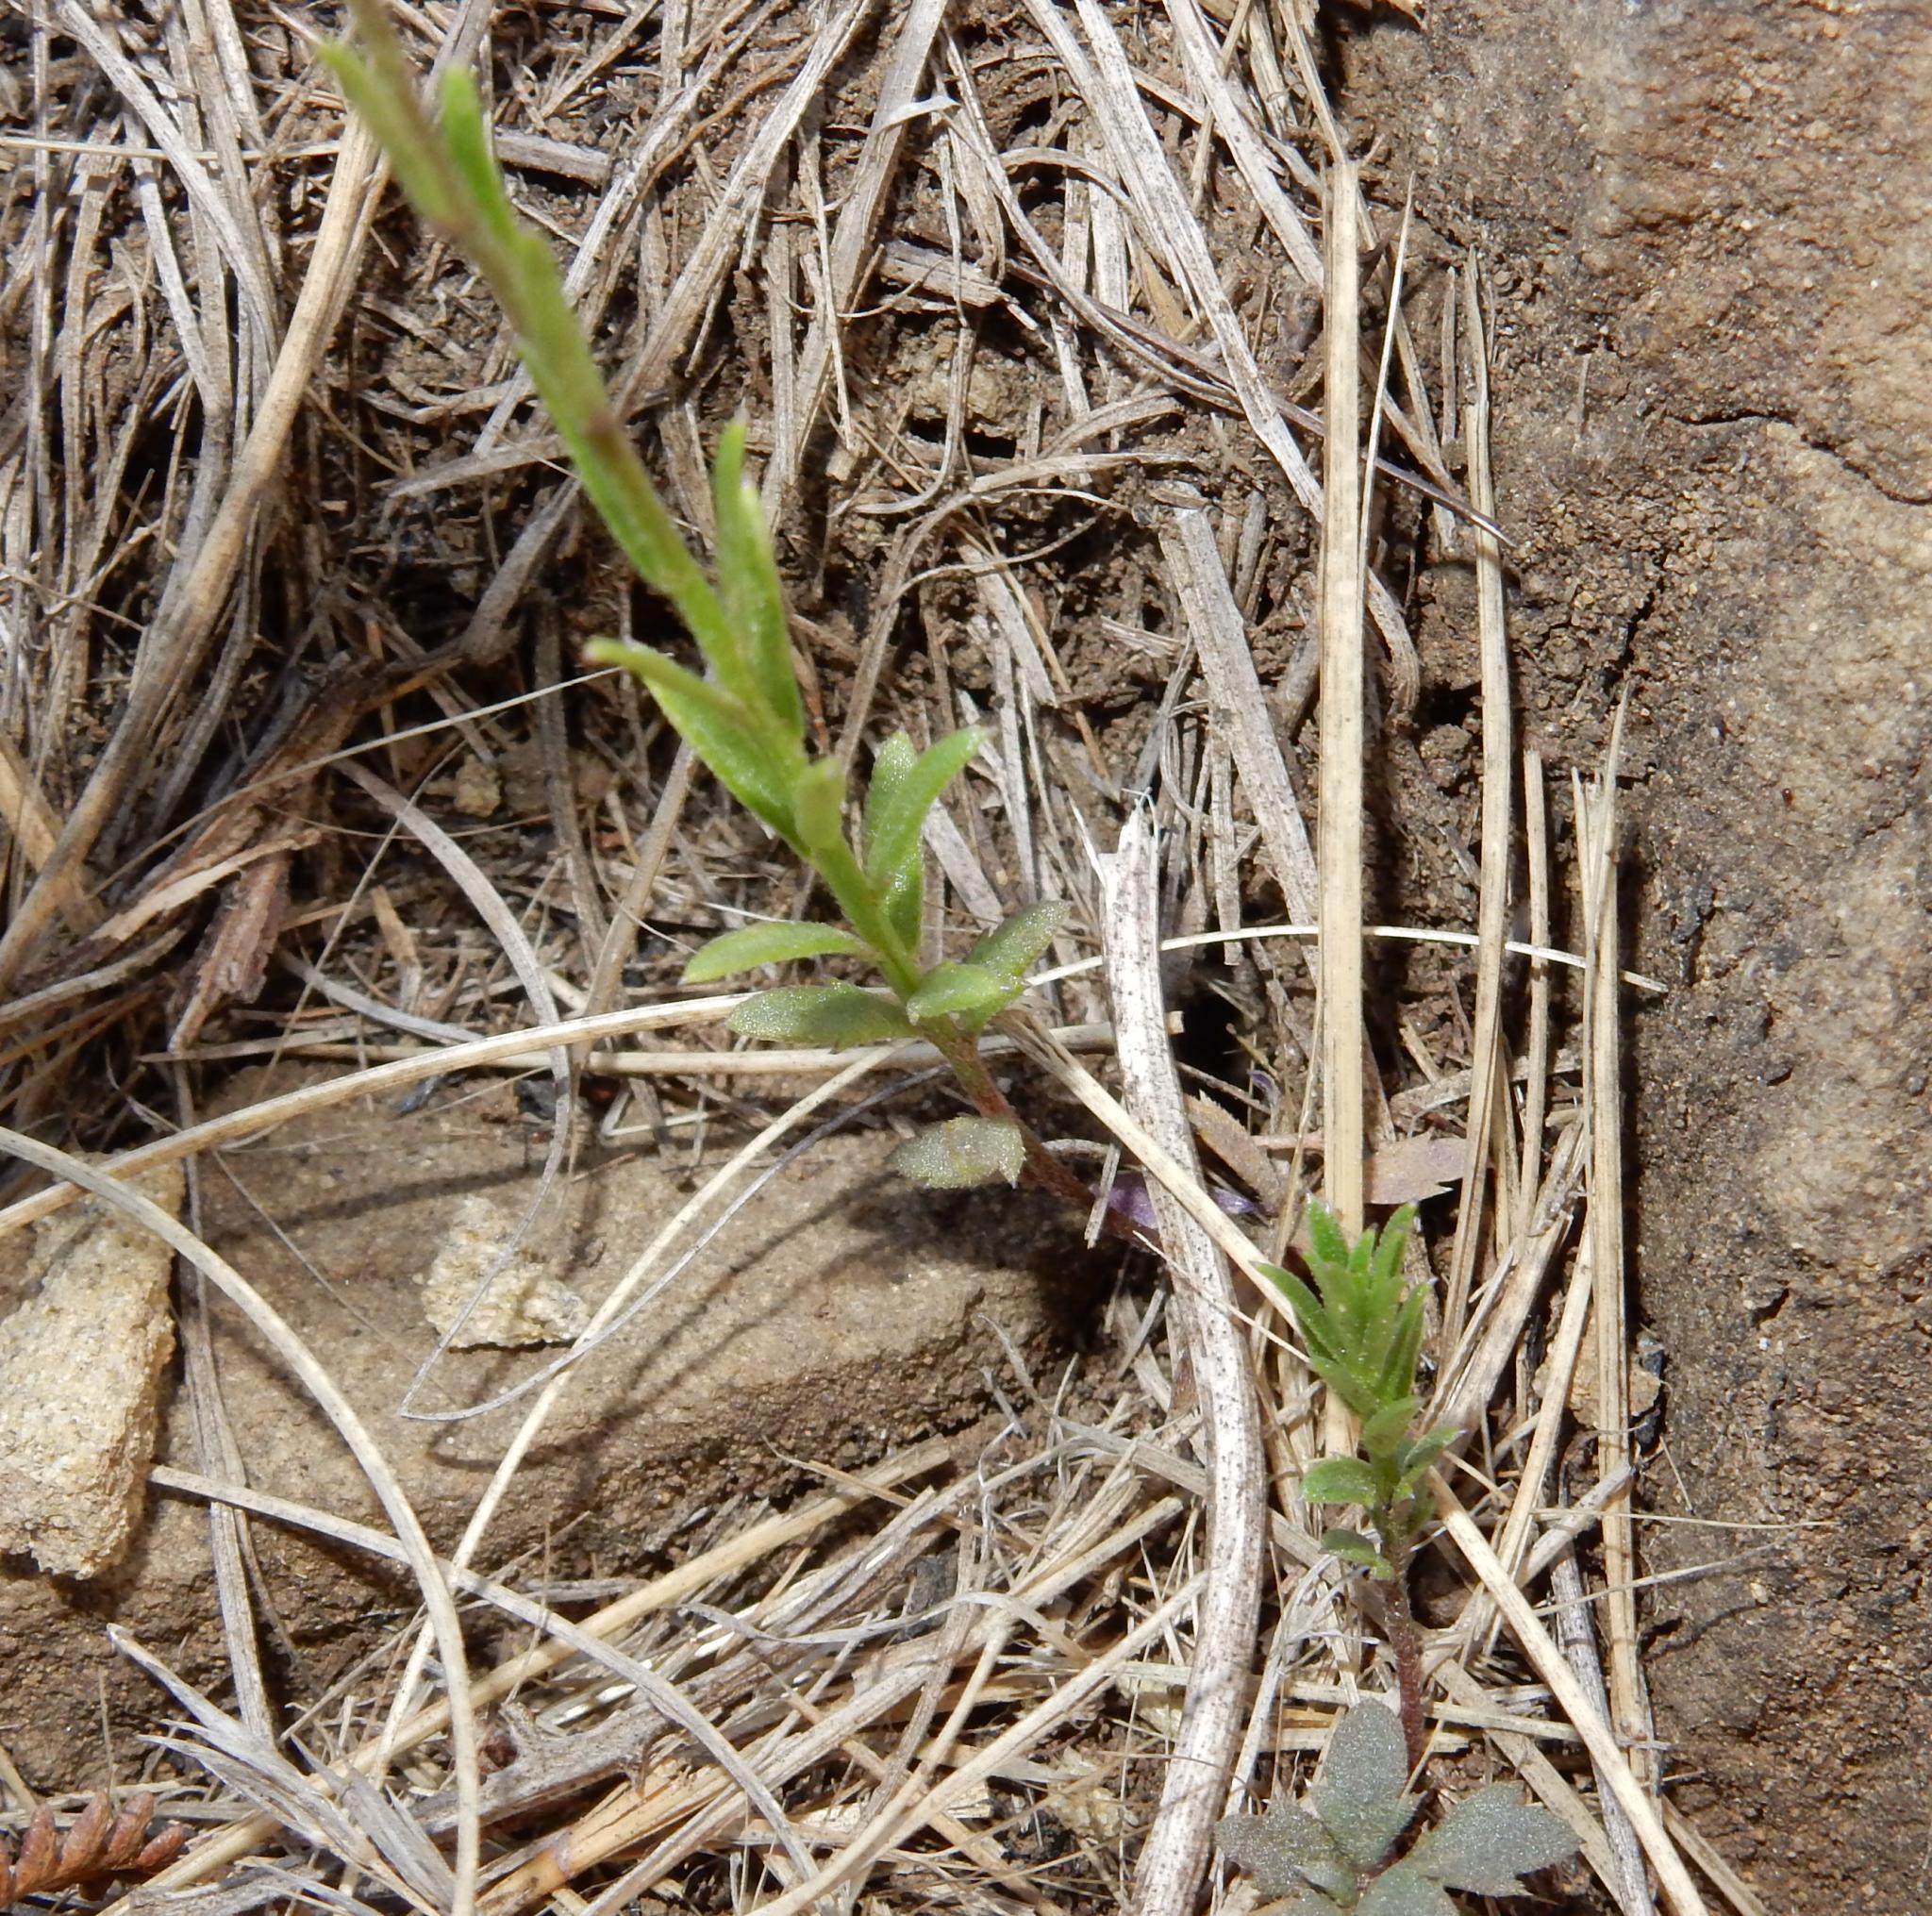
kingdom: Plantae
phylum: Tracheophyta
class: Magnoliopsida
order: Asterales
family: Campanulaceae
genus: Monopsis
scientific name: Monopsis decipiens
